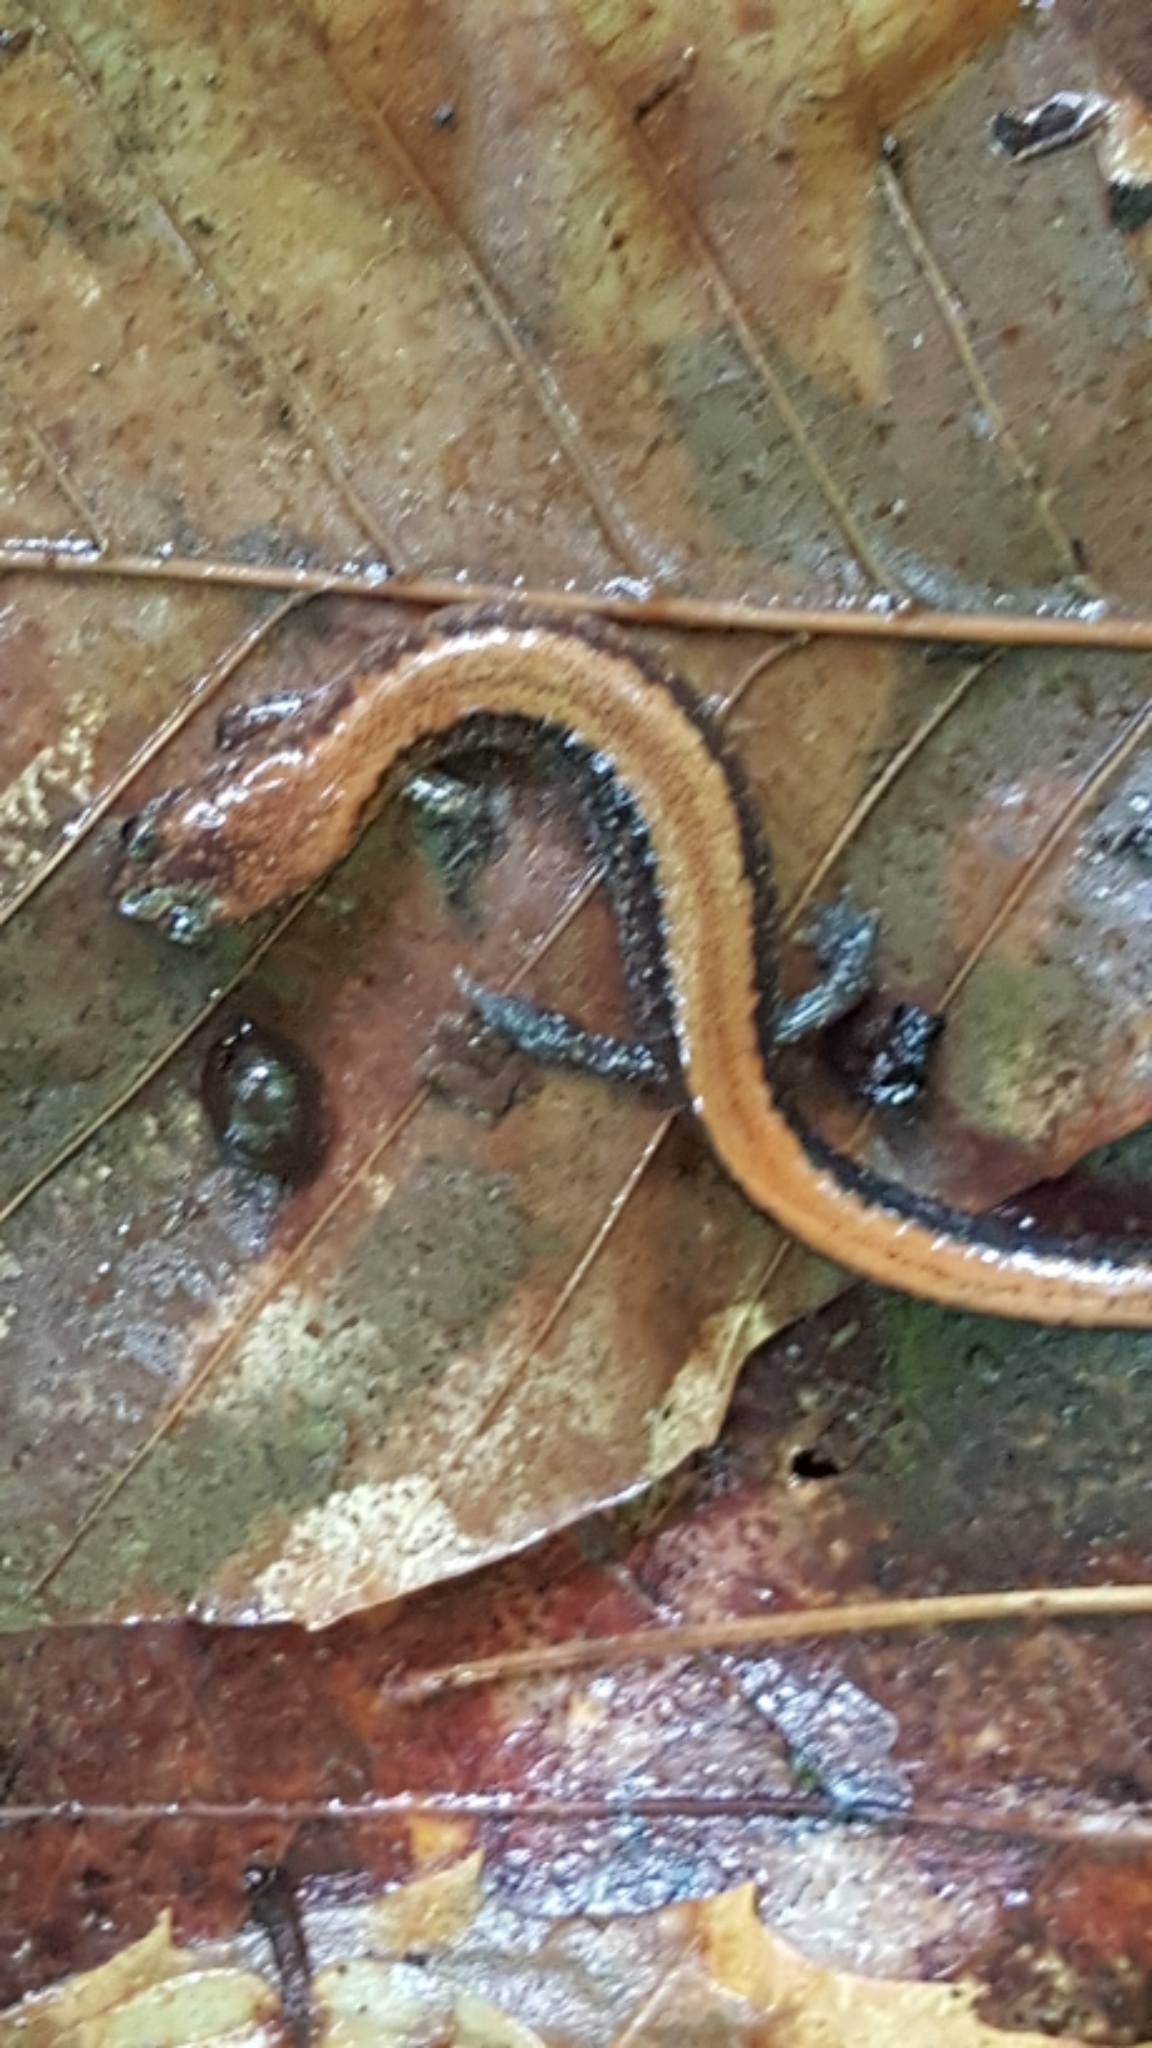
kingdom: Animalia
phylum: Chordata
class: Amphibia
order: Caudata
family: Plethodontidae
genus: Plethodon
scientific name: Plethodon cinereus
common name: Redback salamander
